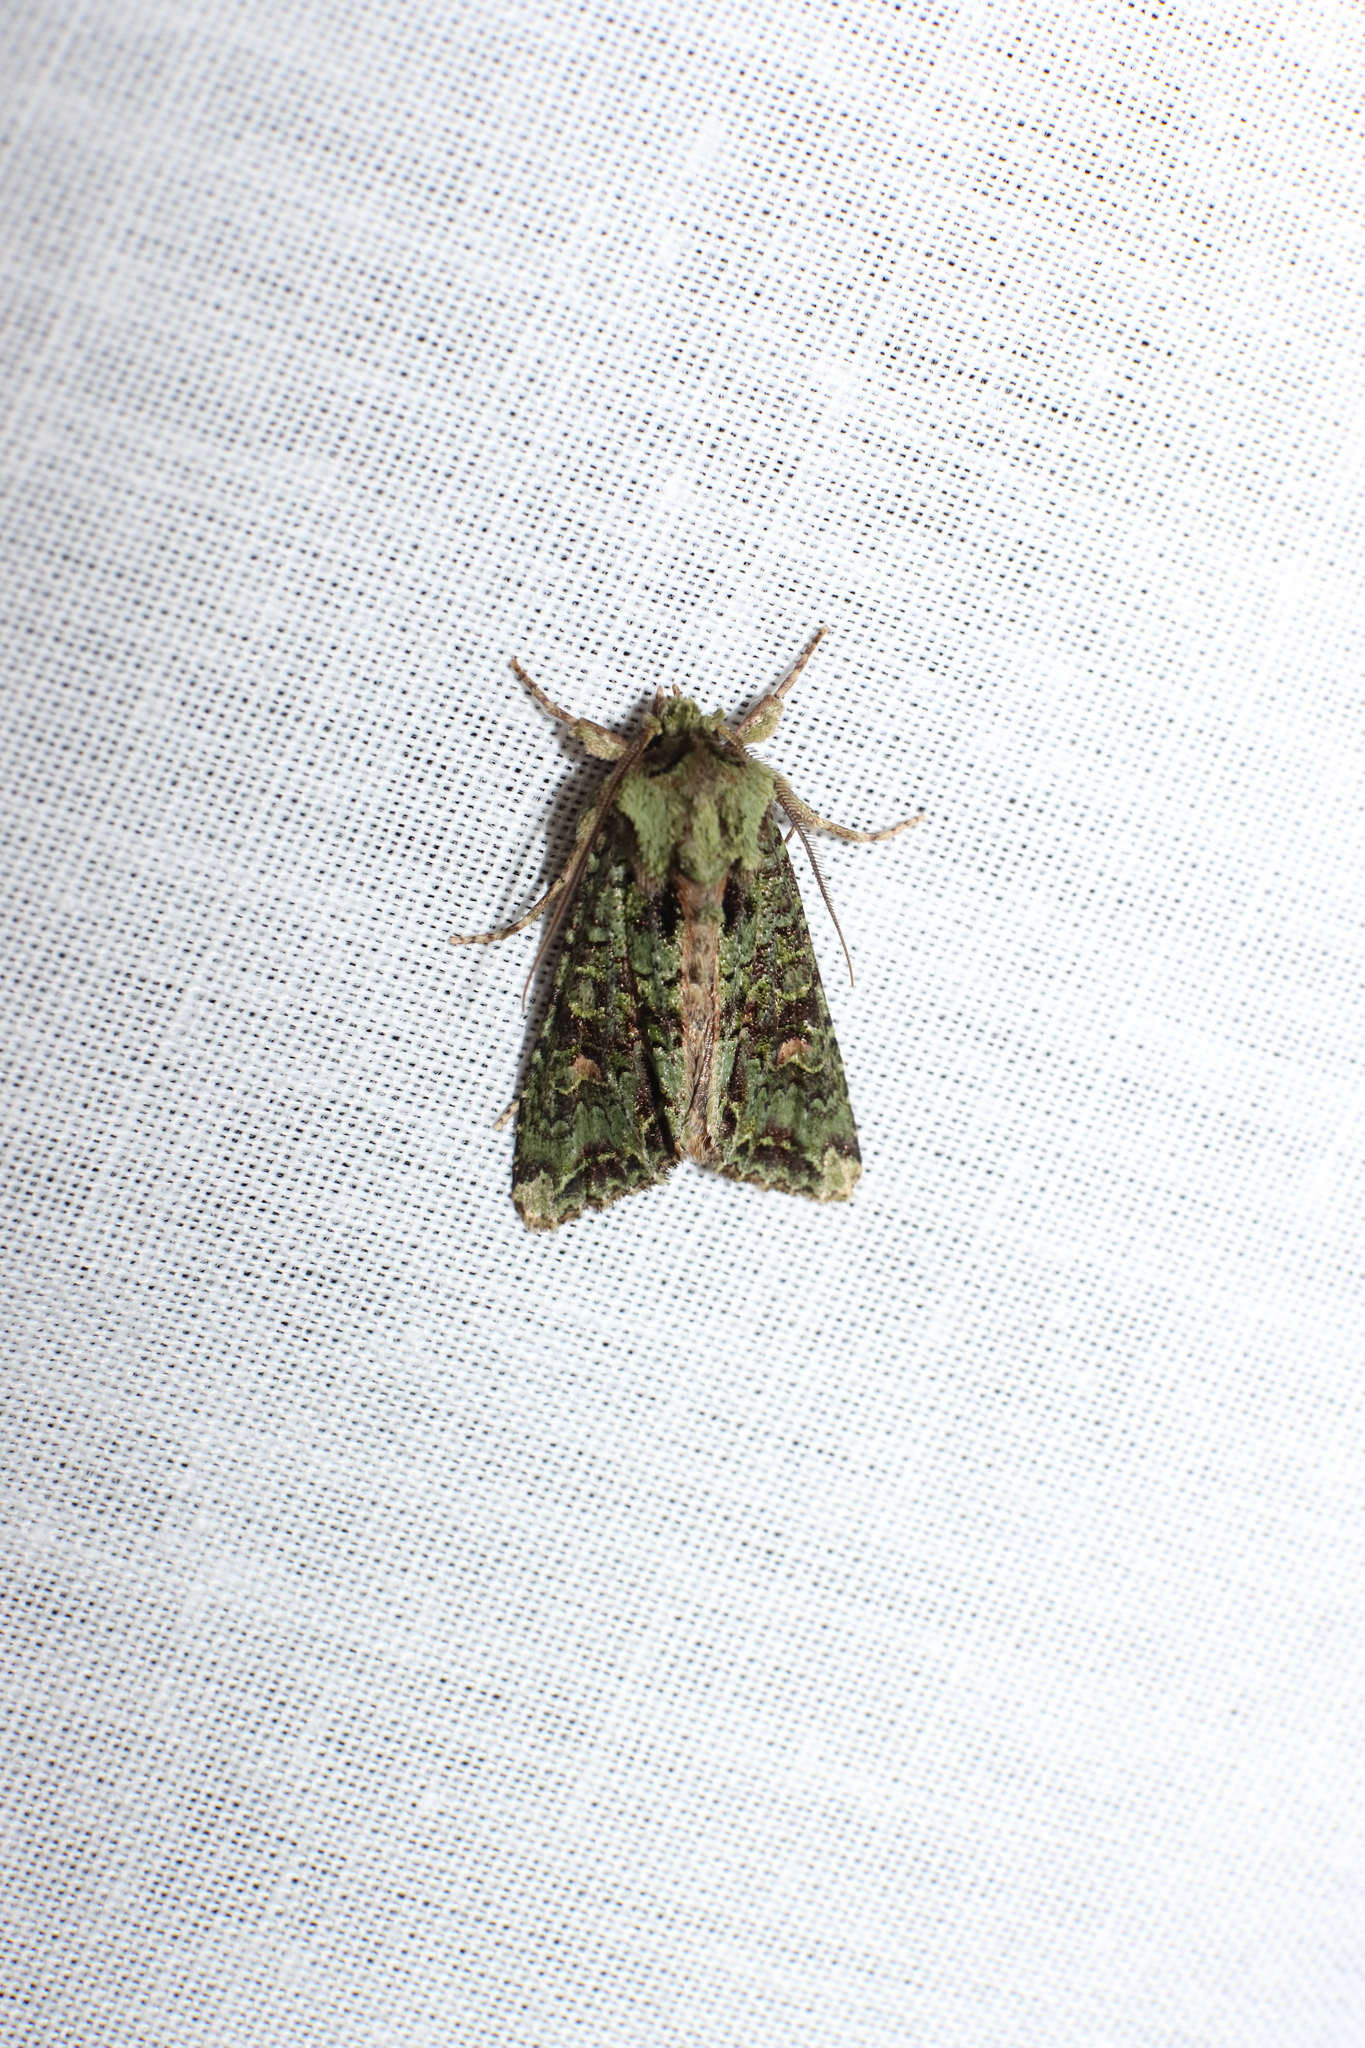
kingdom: Animalia
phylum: Arthropoda
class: Insecta
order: Lepidoptera
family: Noctuidae
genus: Ichneutica
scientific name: Ichneutica
